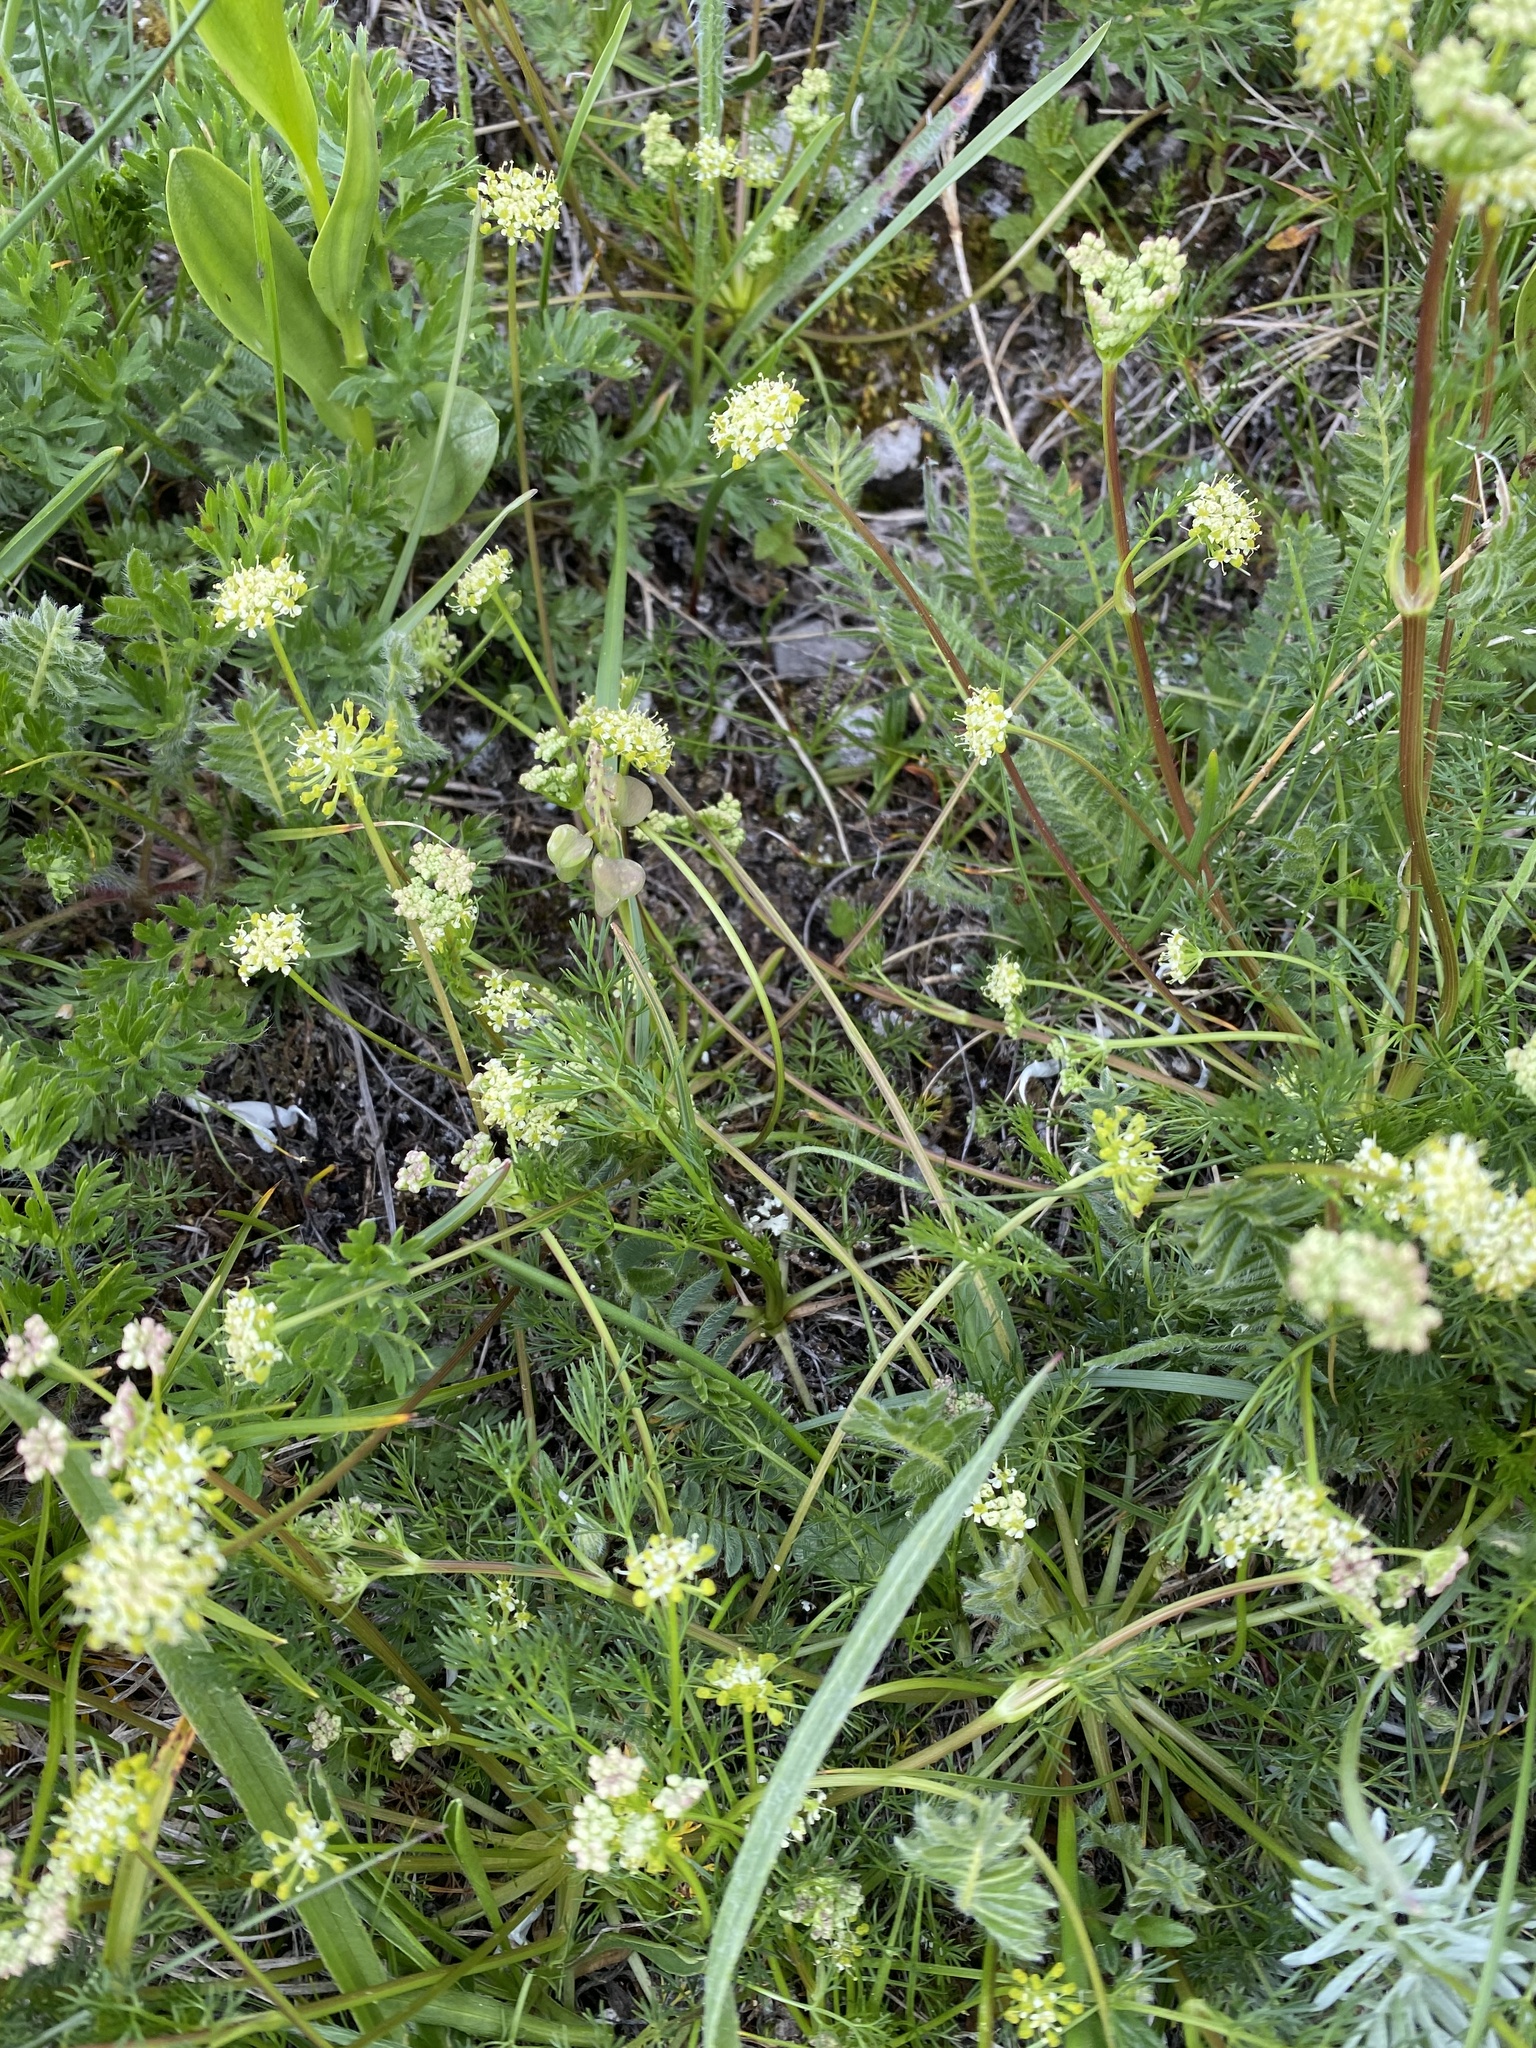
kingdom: Plantae
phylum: Tracheophyta
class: Magnoliopsida
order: Apiales
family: Apiaceae
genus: Chamaesciadium
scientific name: Chamaesciadium acaule
